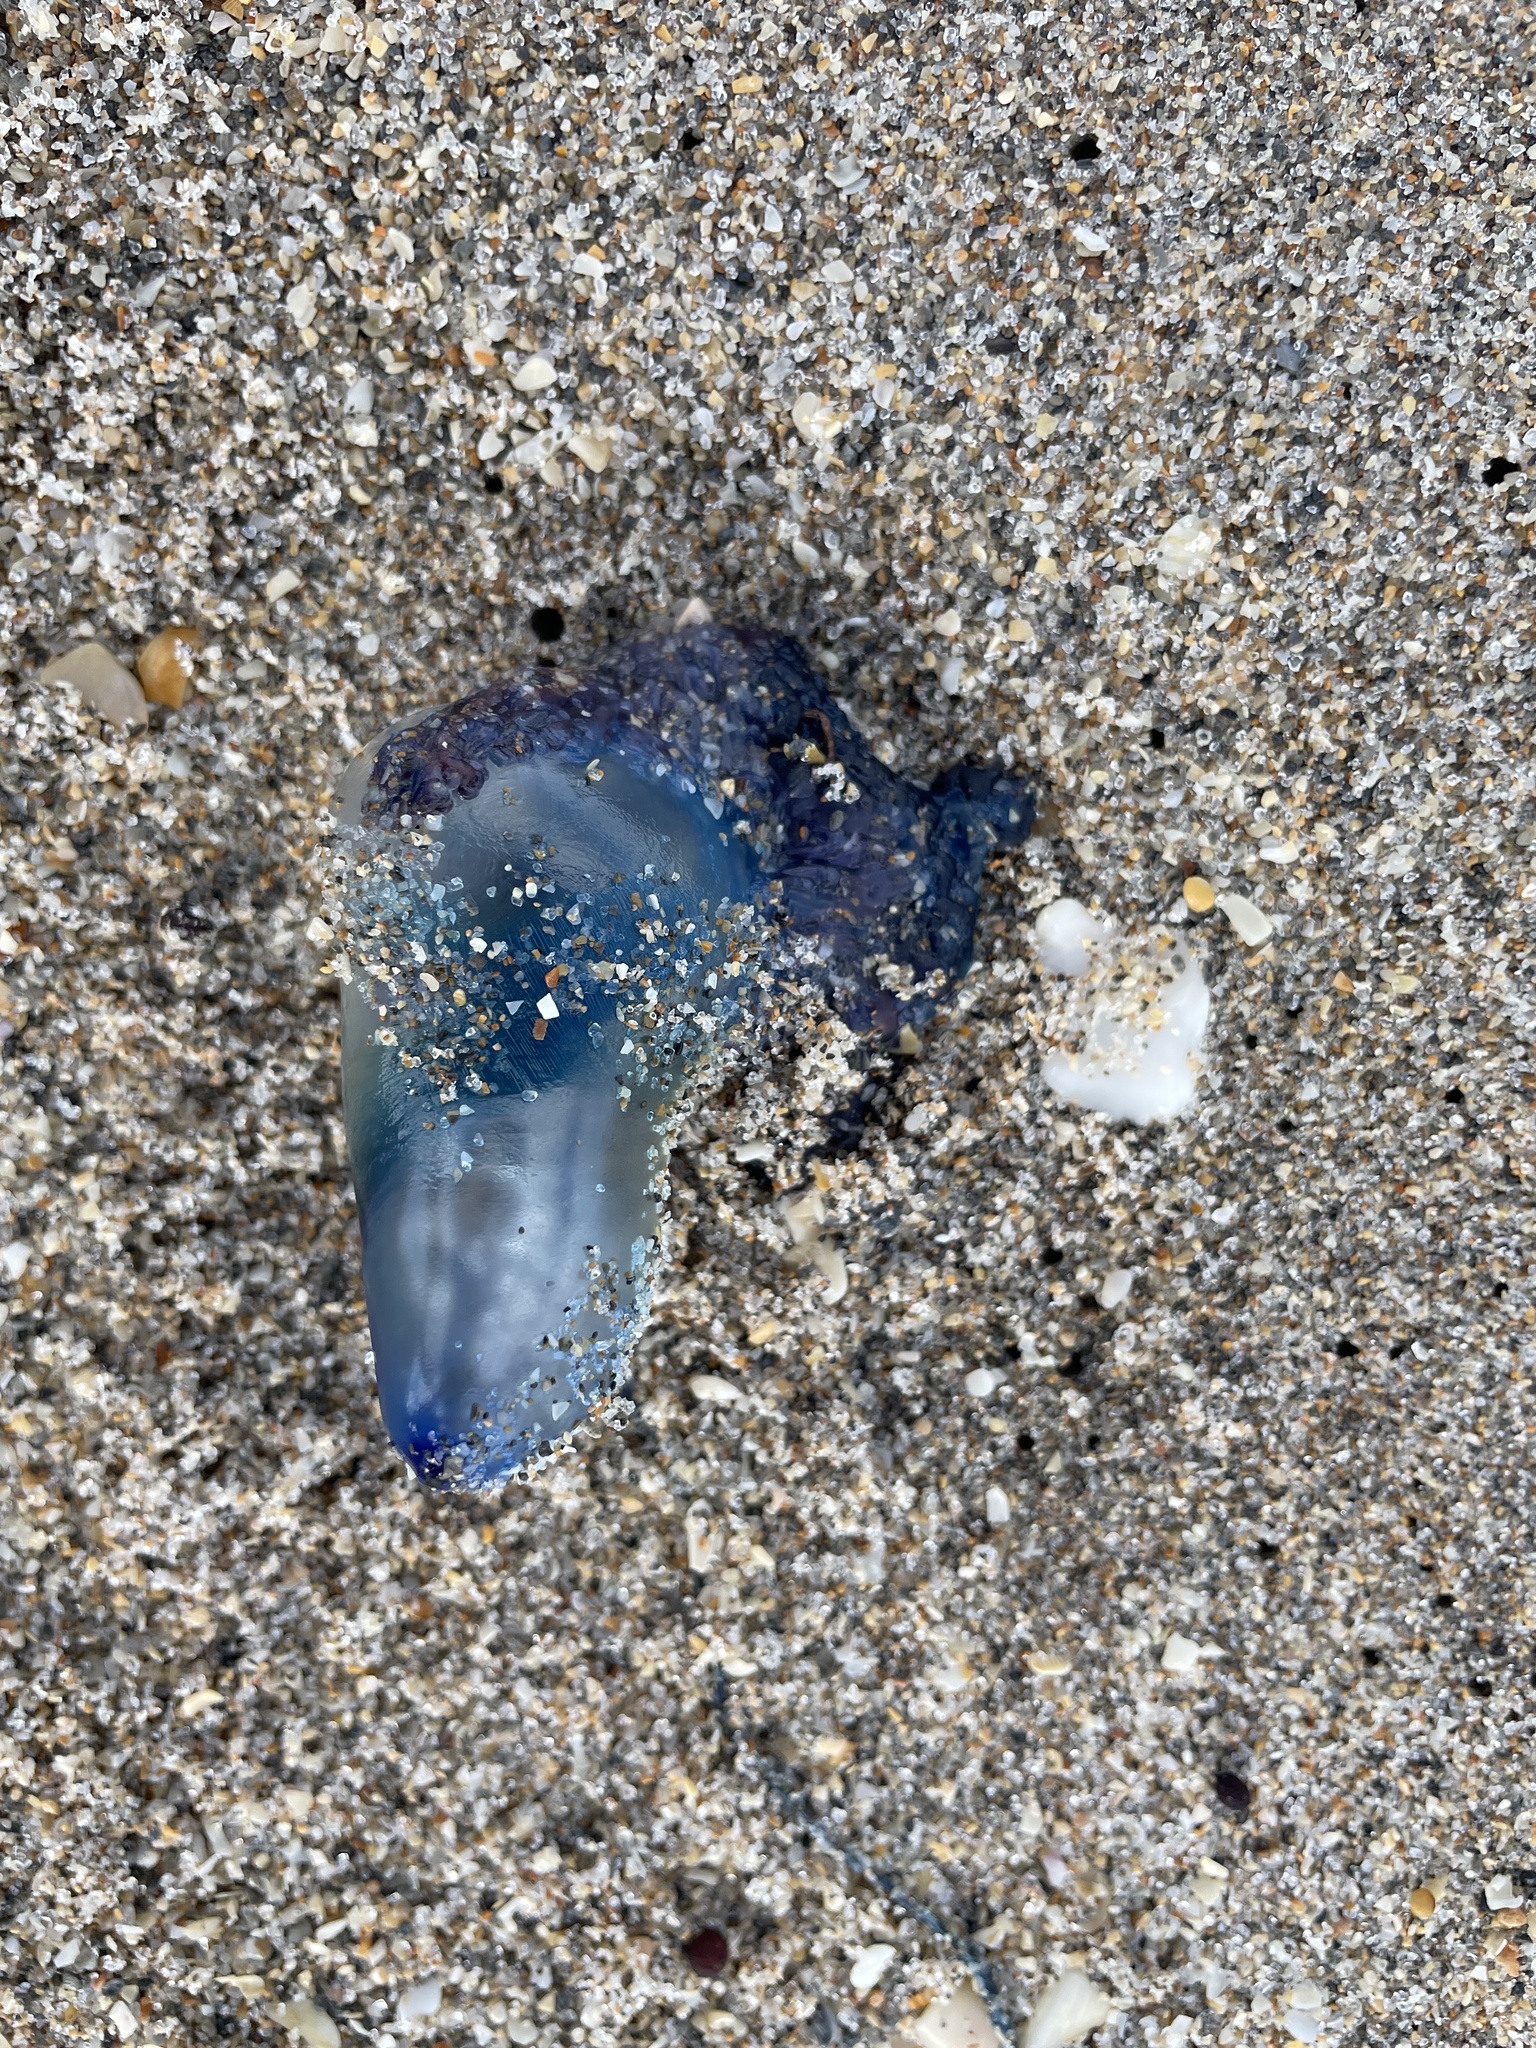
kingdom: Animalia
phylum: Cnidaria
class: Hydrozoa
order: Siphonophorae
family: Physaliidae
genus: Physalia
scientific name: Physalia physalis
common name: Portuguese man-of-war
